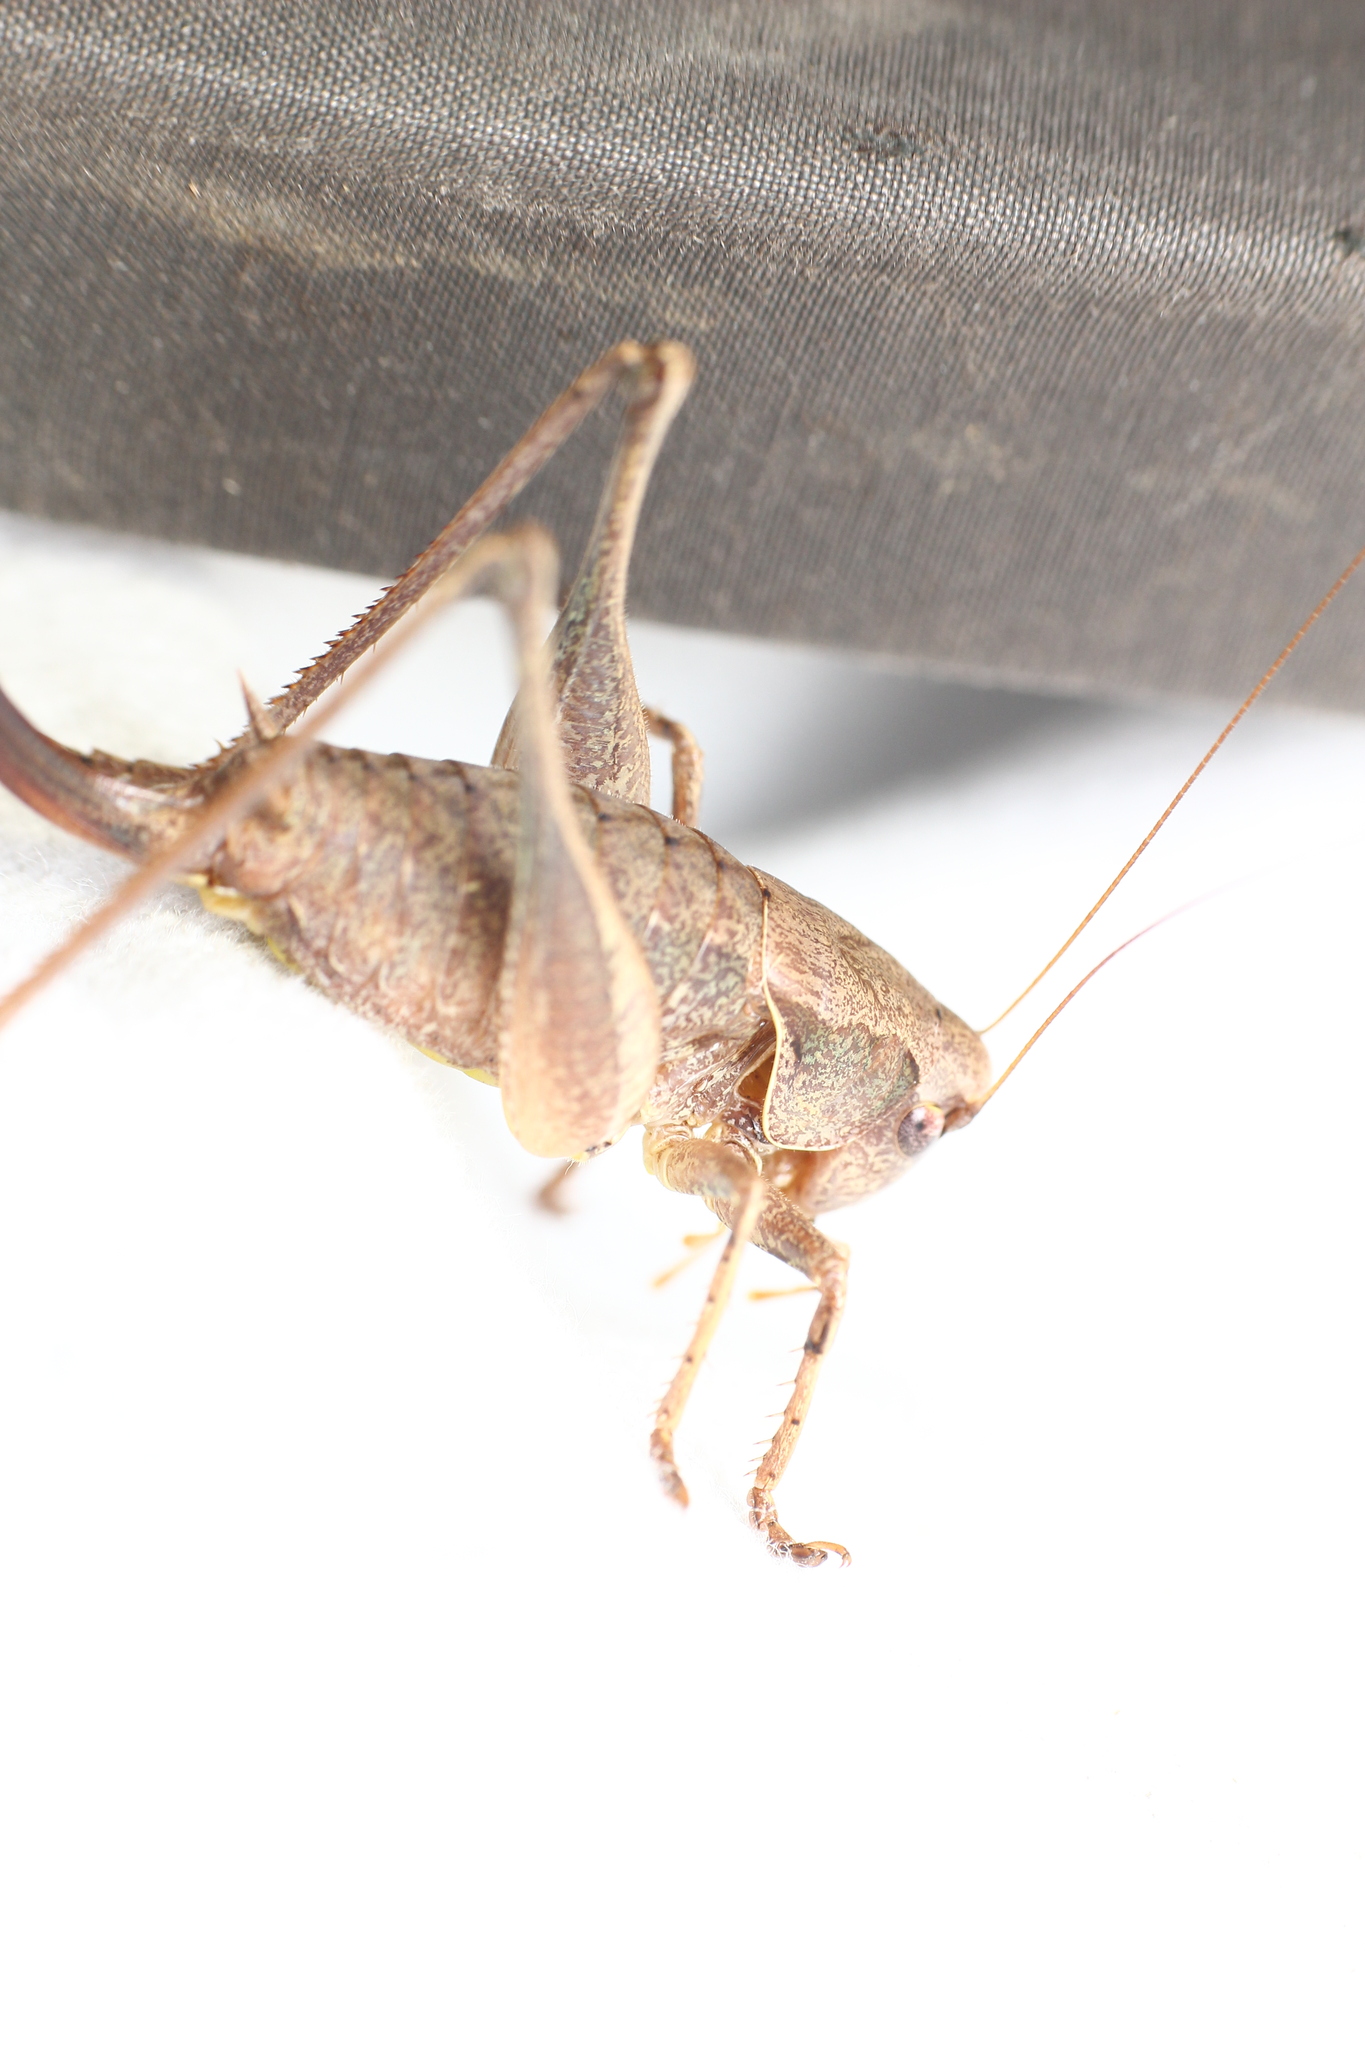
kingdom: Animalia
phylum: Arthropoda
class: Insecta
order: Orthoptera
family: Tettigoniidae
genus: Pholidoptera
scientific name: Pholidoptera griseoaptera
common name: Dark bush-cricket
